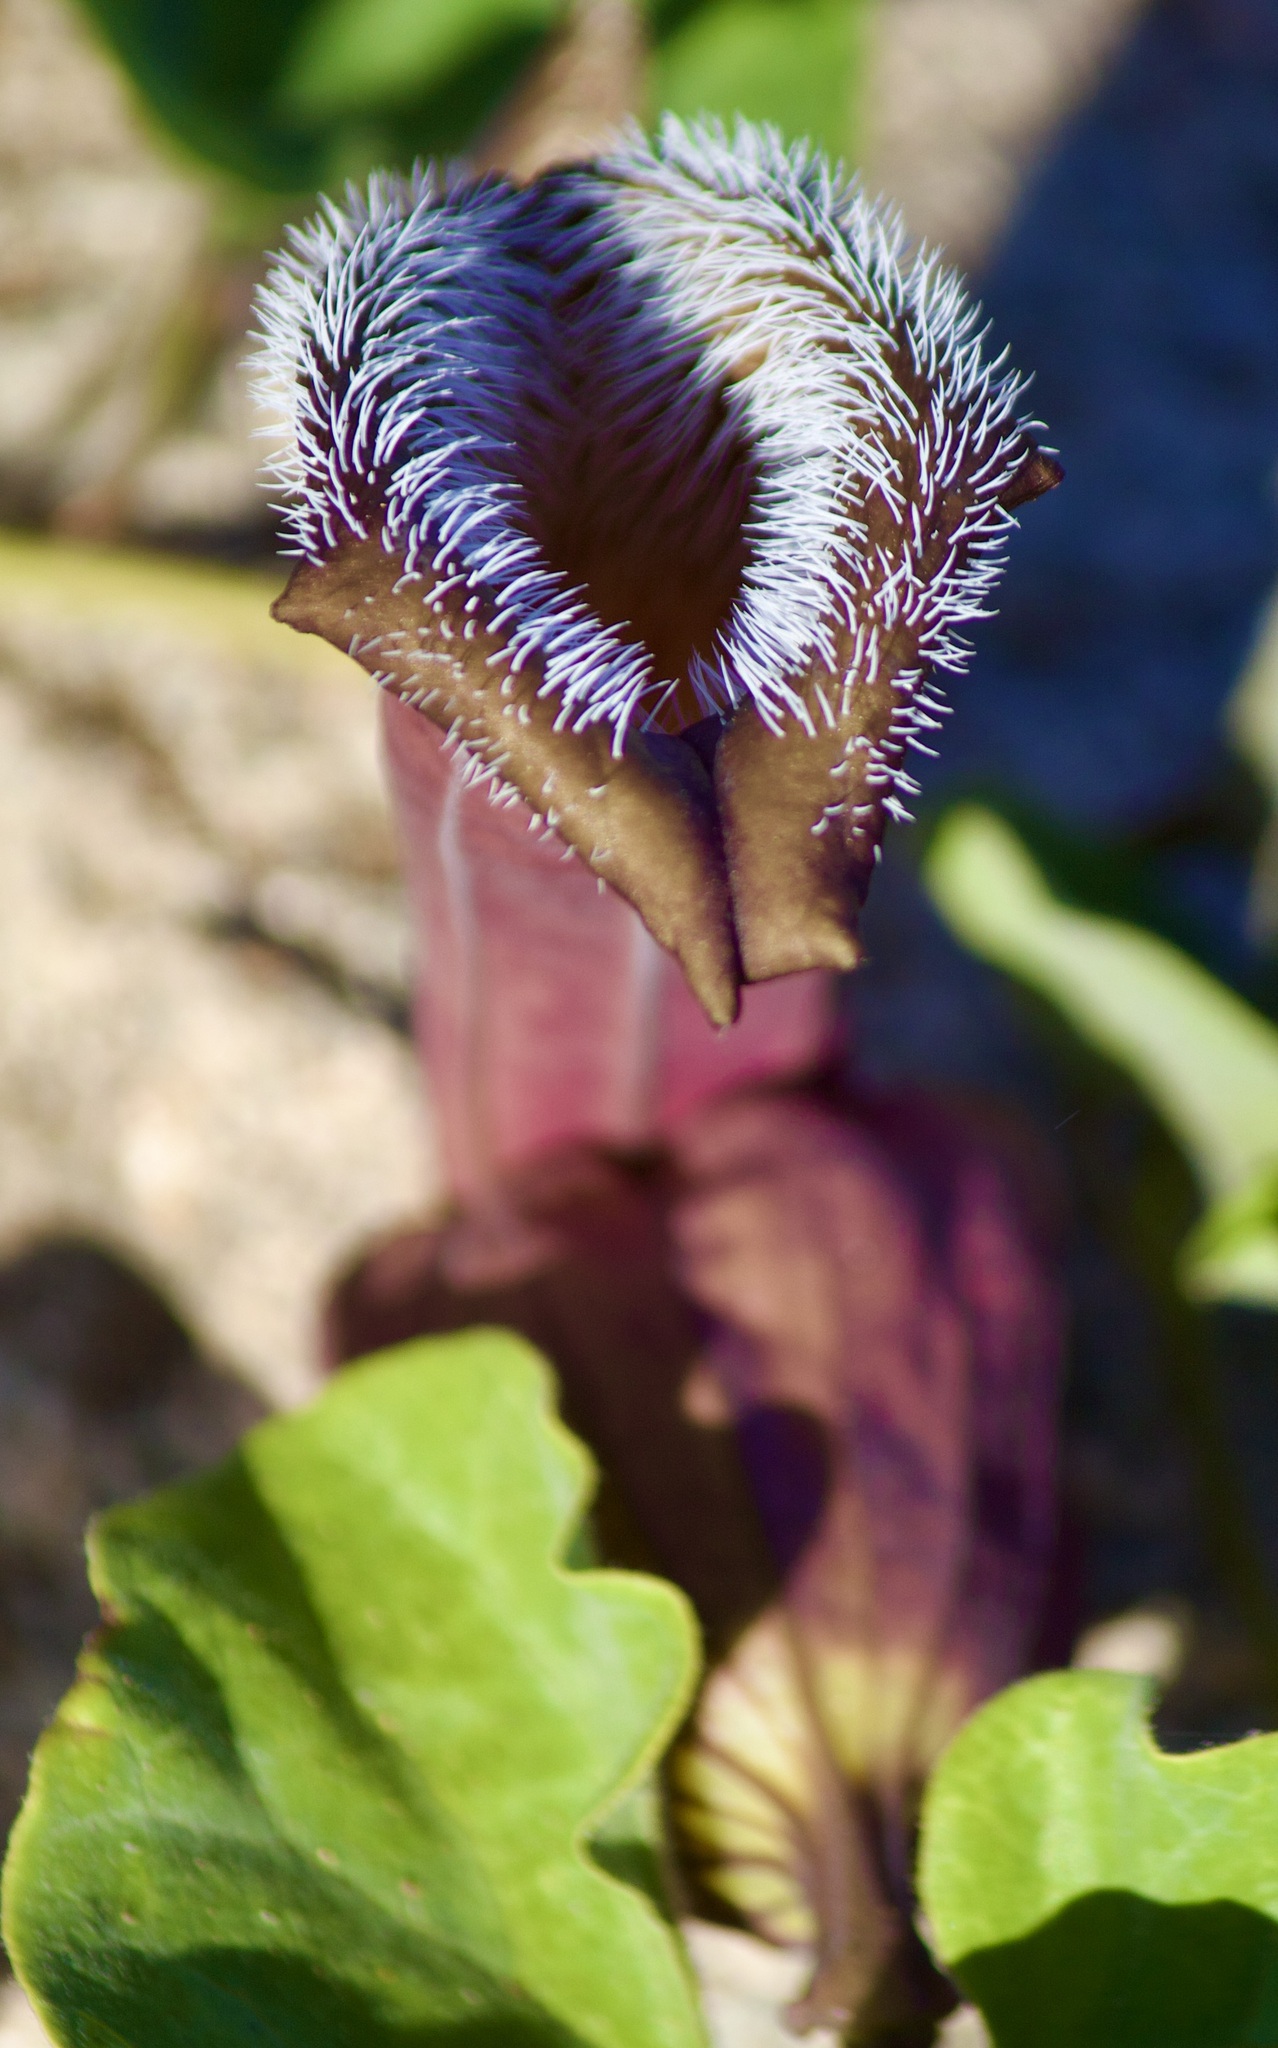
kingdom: Plantae
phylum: Tracheophyta
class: Magnoliopsida
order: Piperales
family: Aristolochiaceae
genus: Aristolochia
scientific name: Aristolochia chilensis
